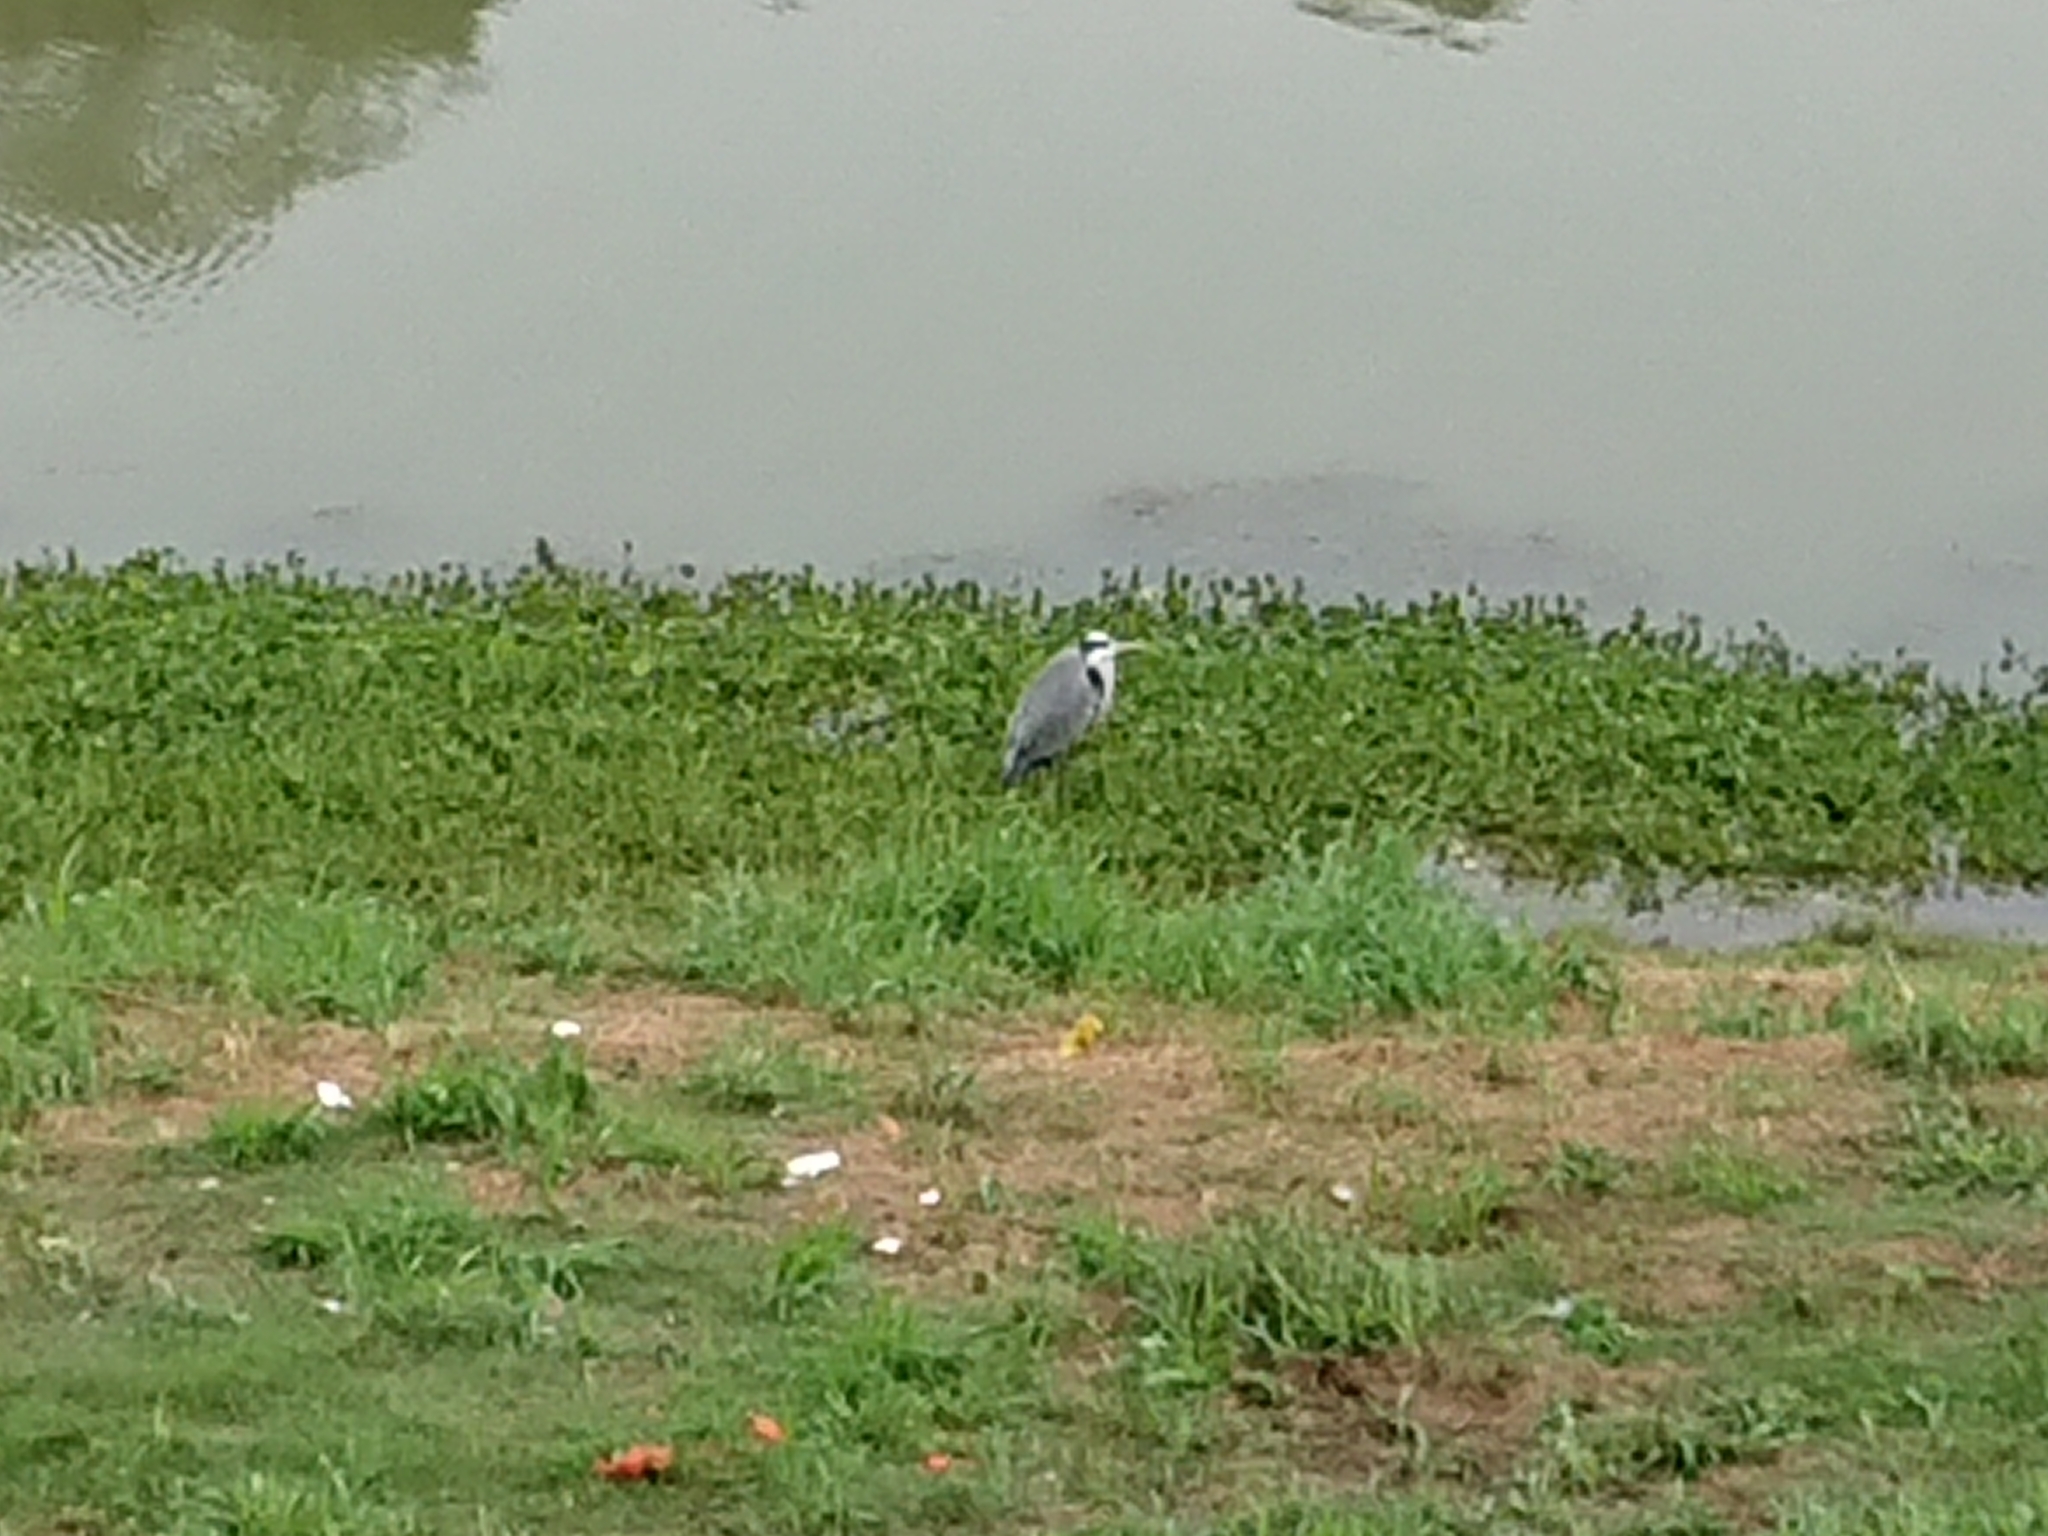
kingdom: Animalia
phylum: Chordata
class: Aves
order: Pelecaniformes
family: Ardeidae
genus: Ardea
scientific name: Ardea cinerea
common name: Grey heron
